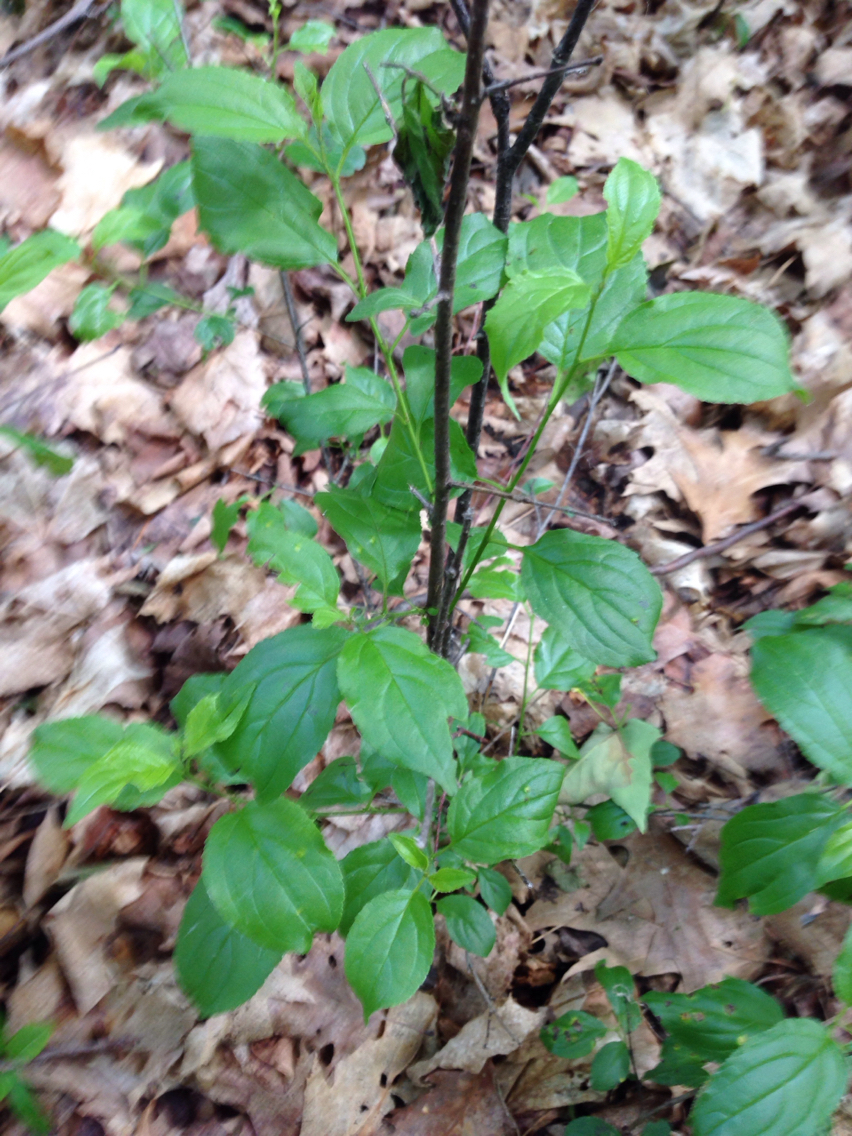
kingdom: Plantae
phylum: Tracheophyta
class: Magnoliopsida
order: Rosales
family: Rhamnaceae
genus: Rhamnus
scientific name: Rhamnus cathartica
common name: Common buckthorn
